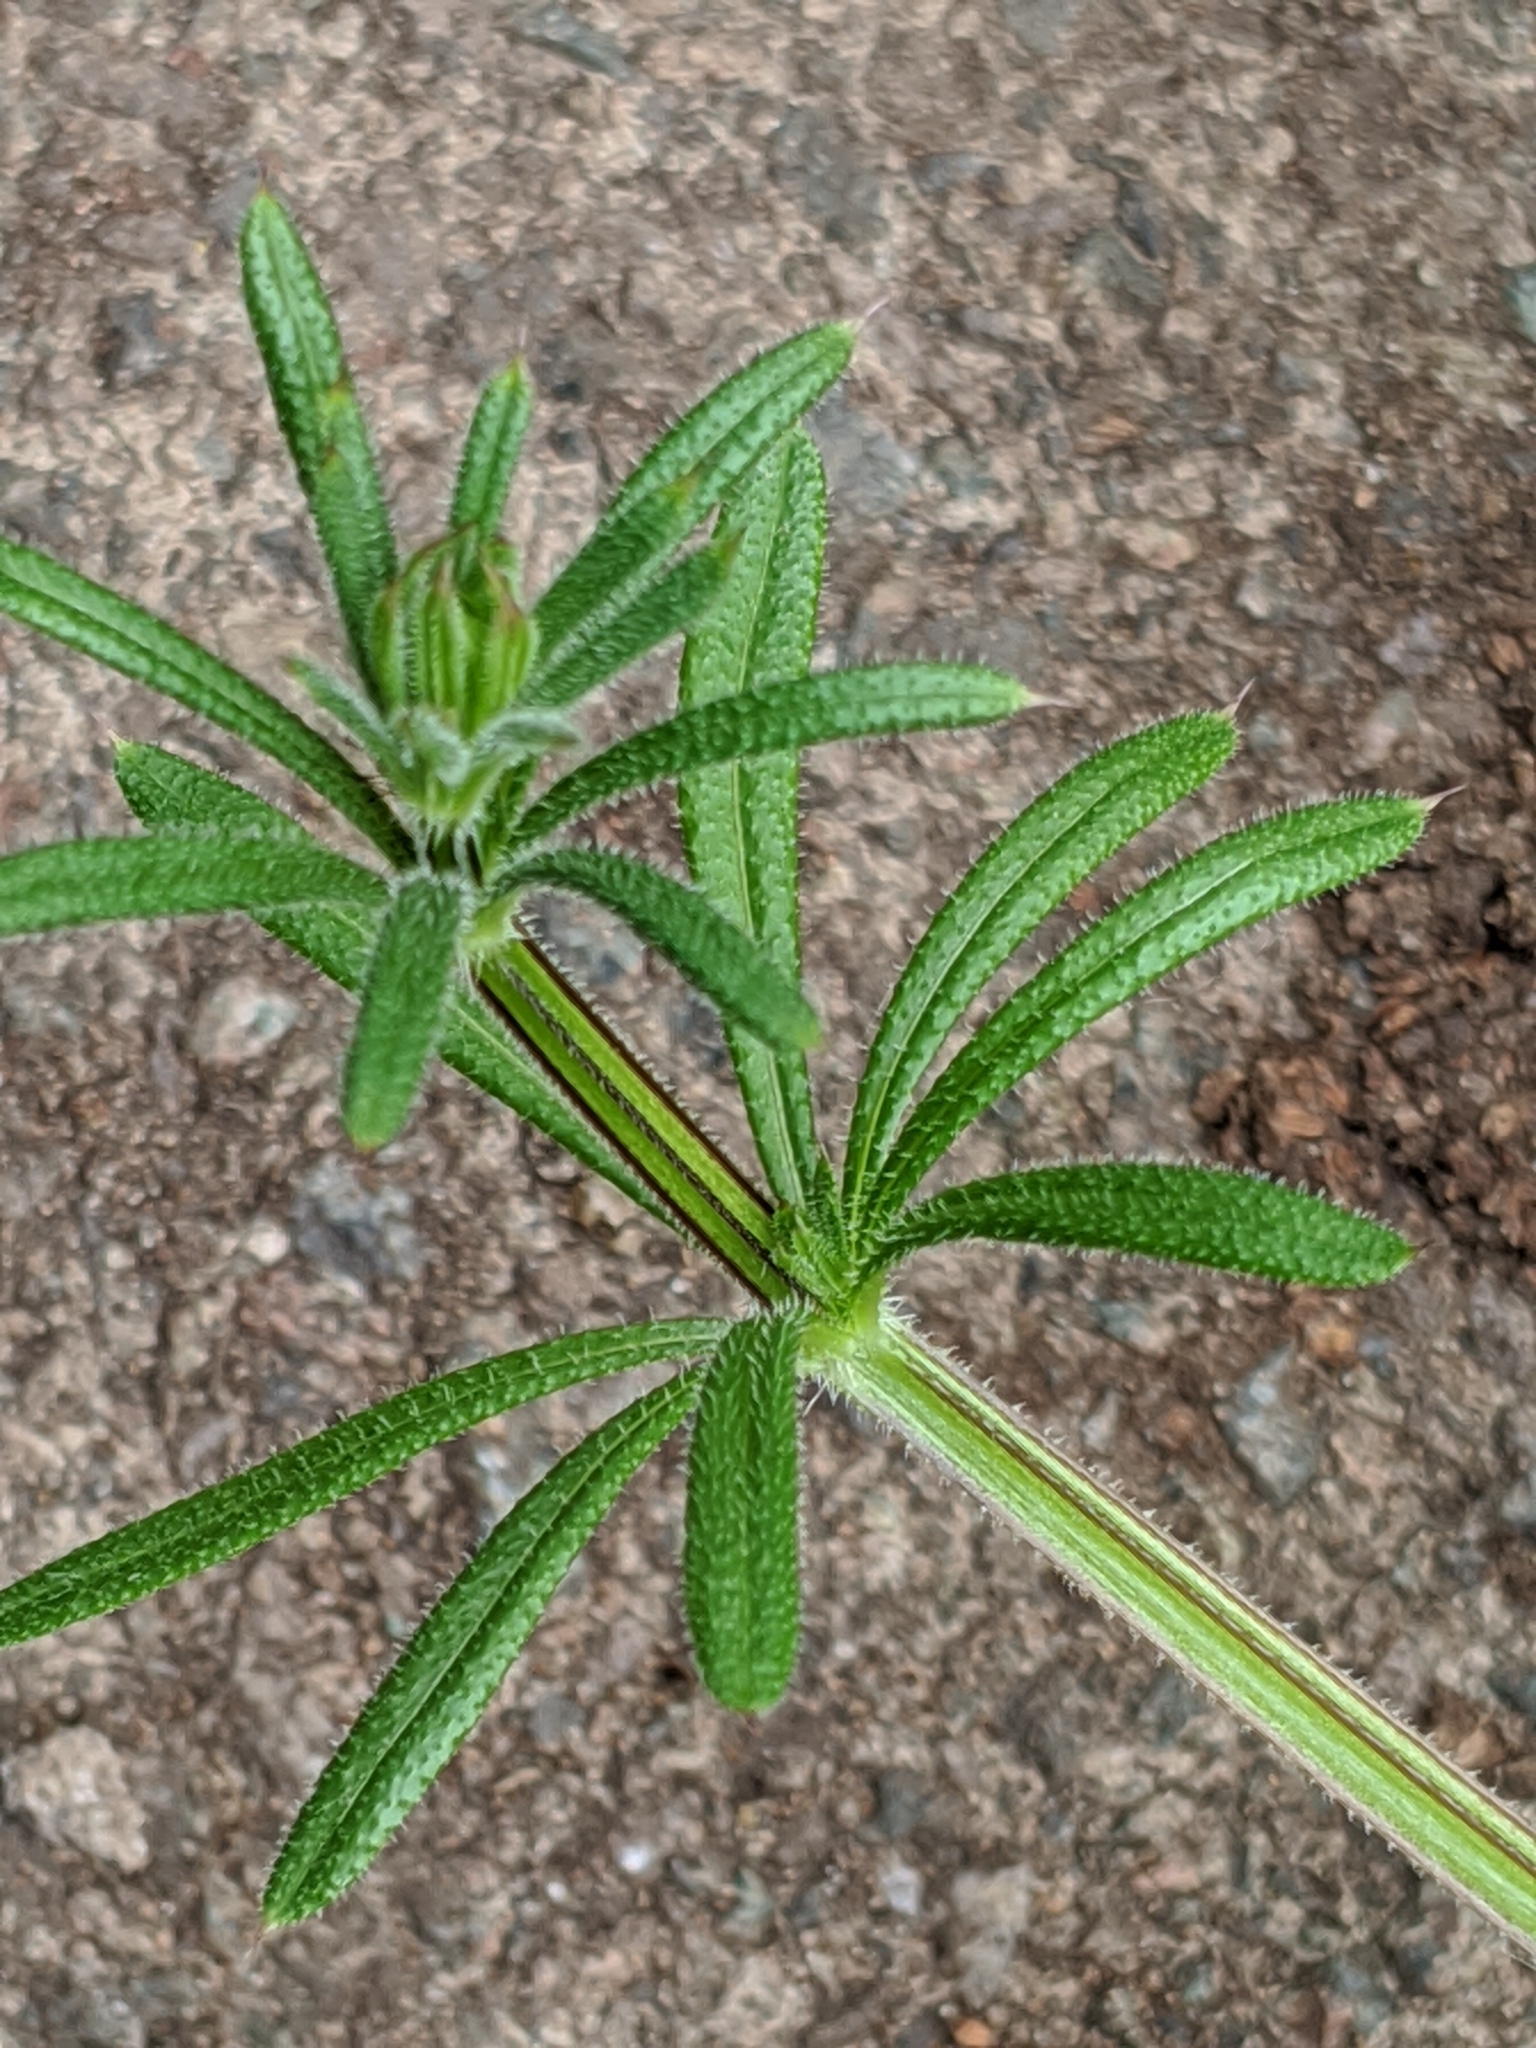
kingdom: Plantae
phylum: Tracheophyta
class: Magnoliopsida
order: Gentianales
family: Rubiaceae
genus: Galium
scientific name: Galium aparine
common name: Cleavers
